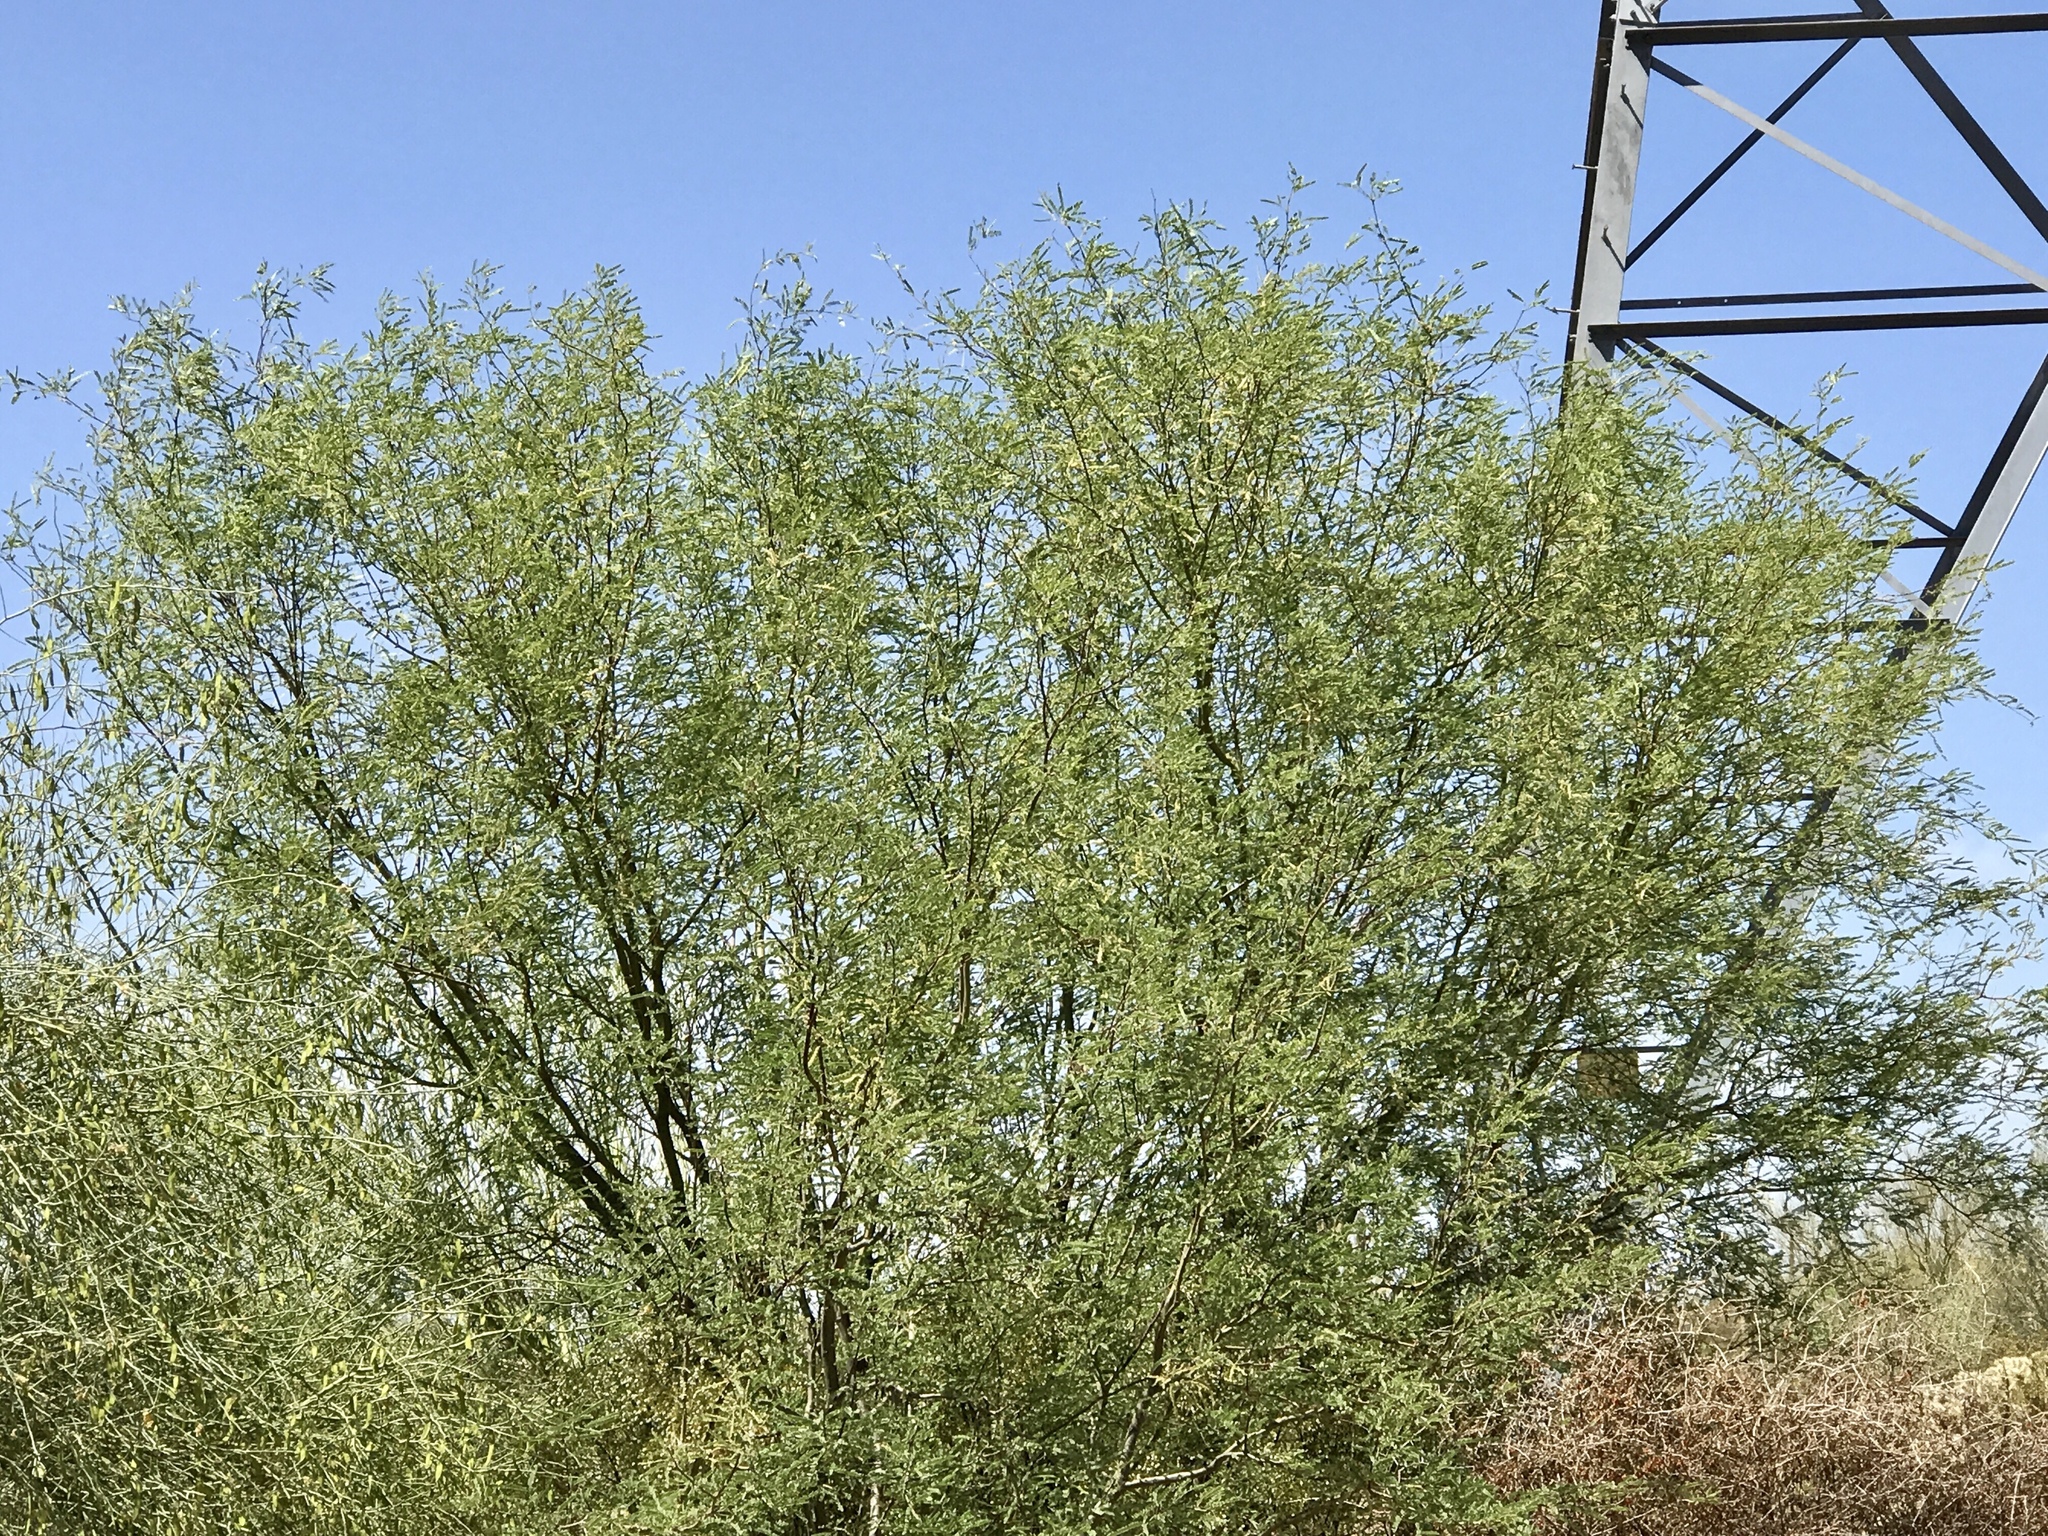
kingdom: Plantae
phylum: Tracheophyta
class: Magnoliopsida
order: Fabales
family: Fabaceae
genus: Prosopis
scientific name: Prosopis velutina
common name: Velvet mesquite
